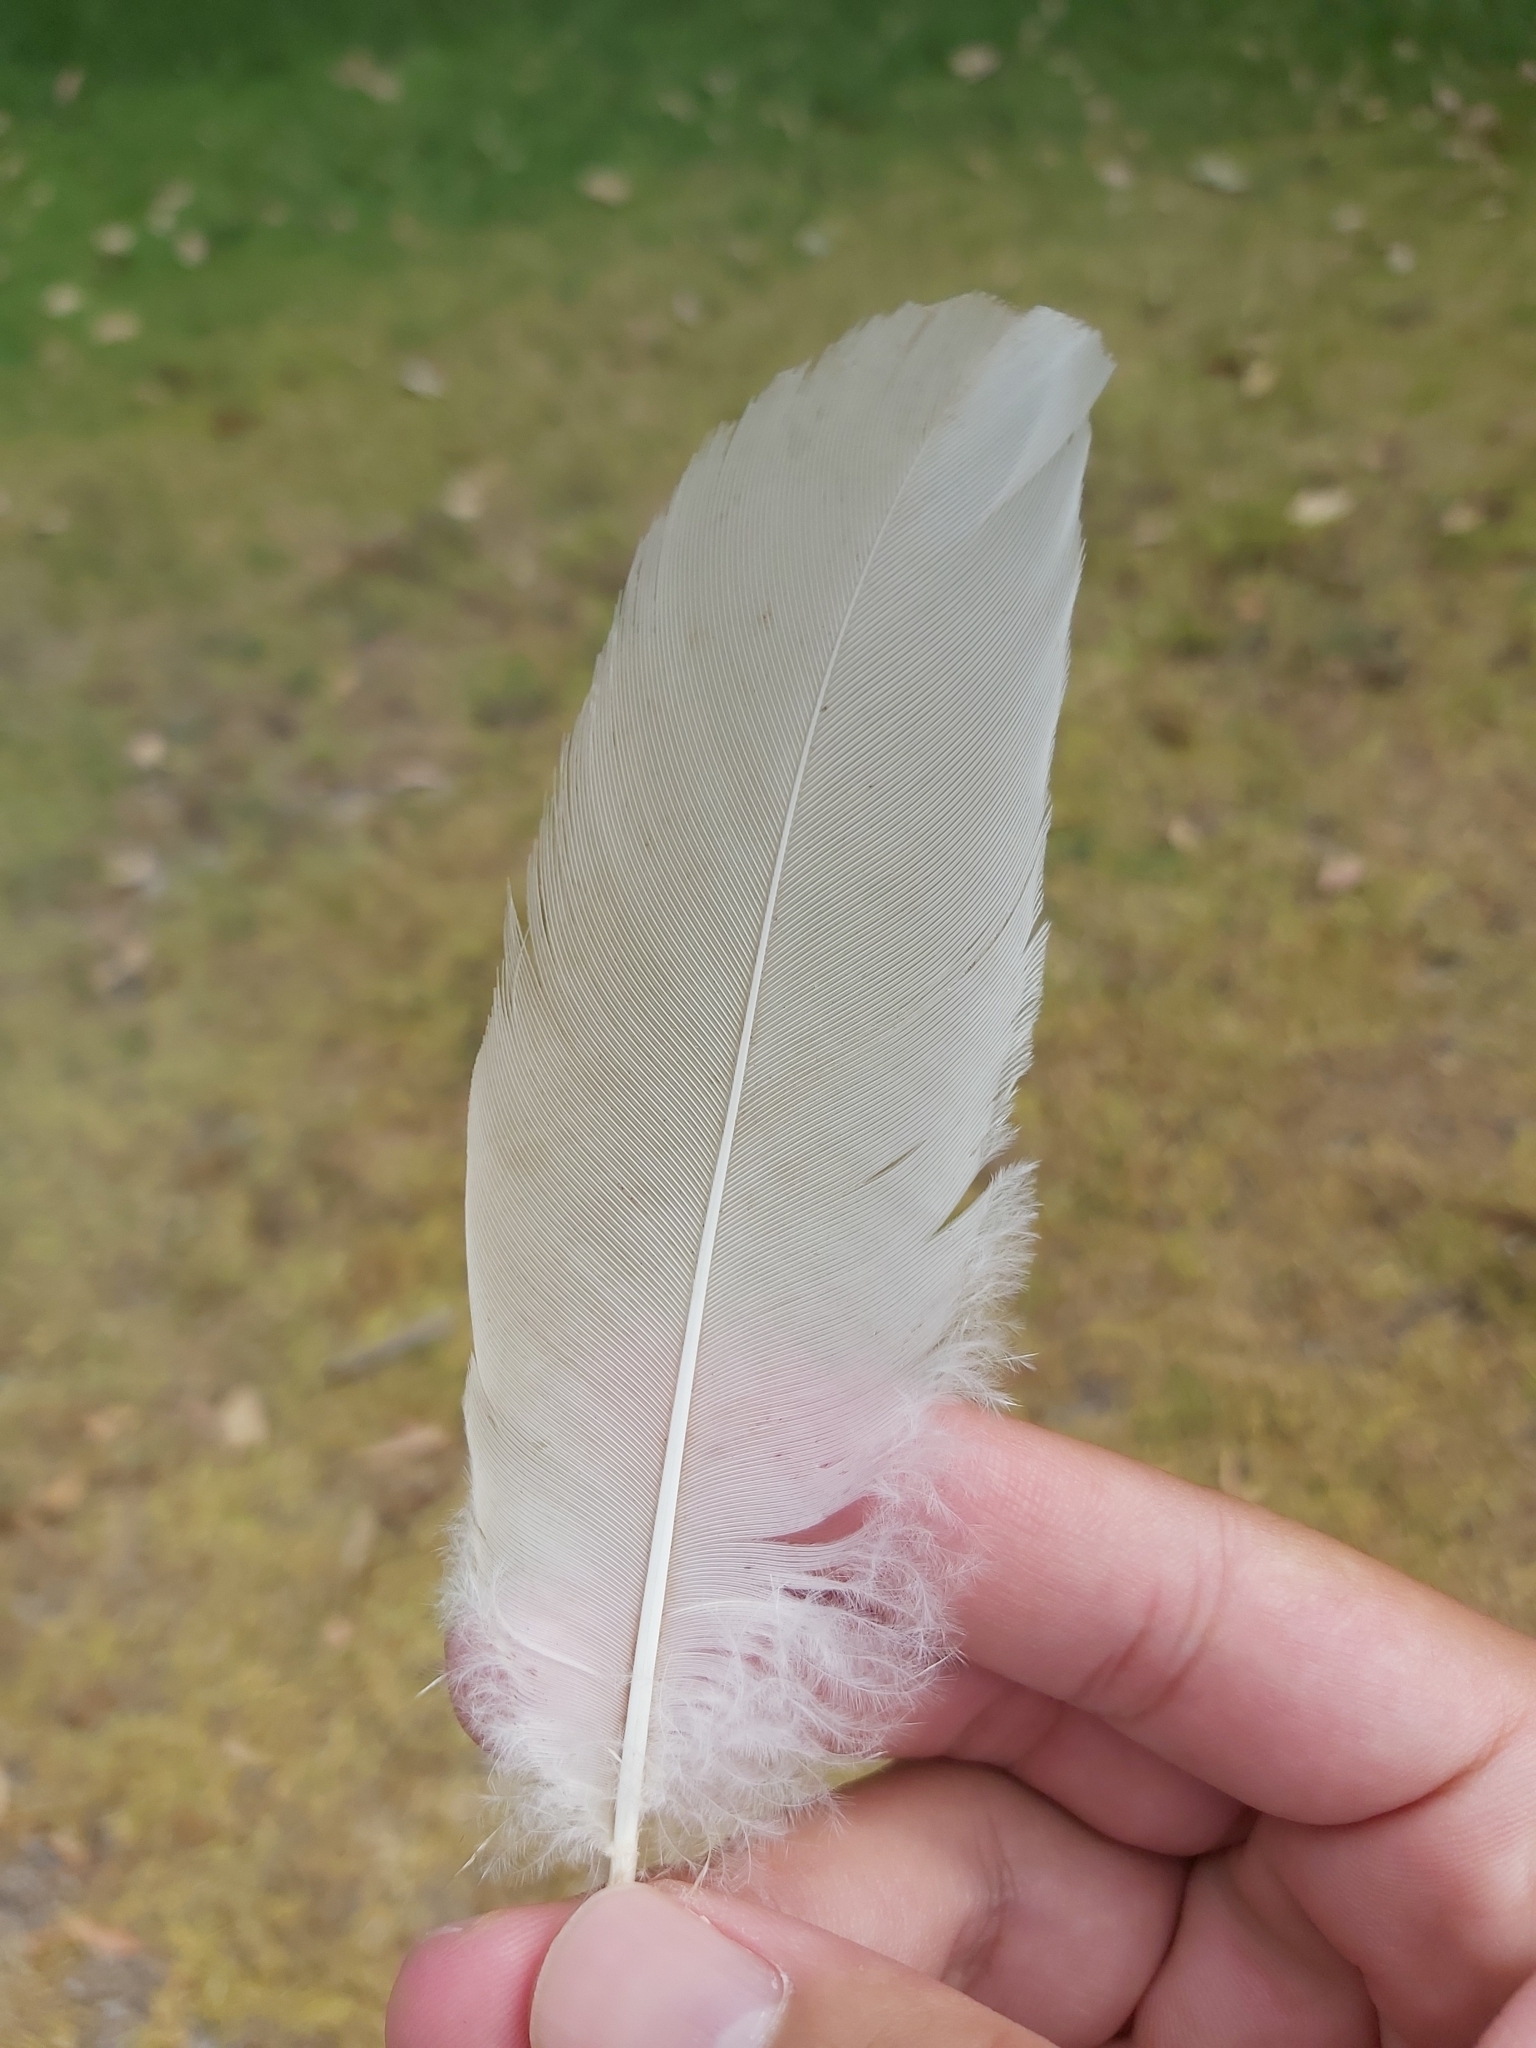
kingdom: Animalia
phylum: Chordata
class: Aves
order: Pelecaniformes
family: Threskiornithidae
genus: Threskiornis
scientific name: Threskiornis molucca
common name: Australian white ibis
